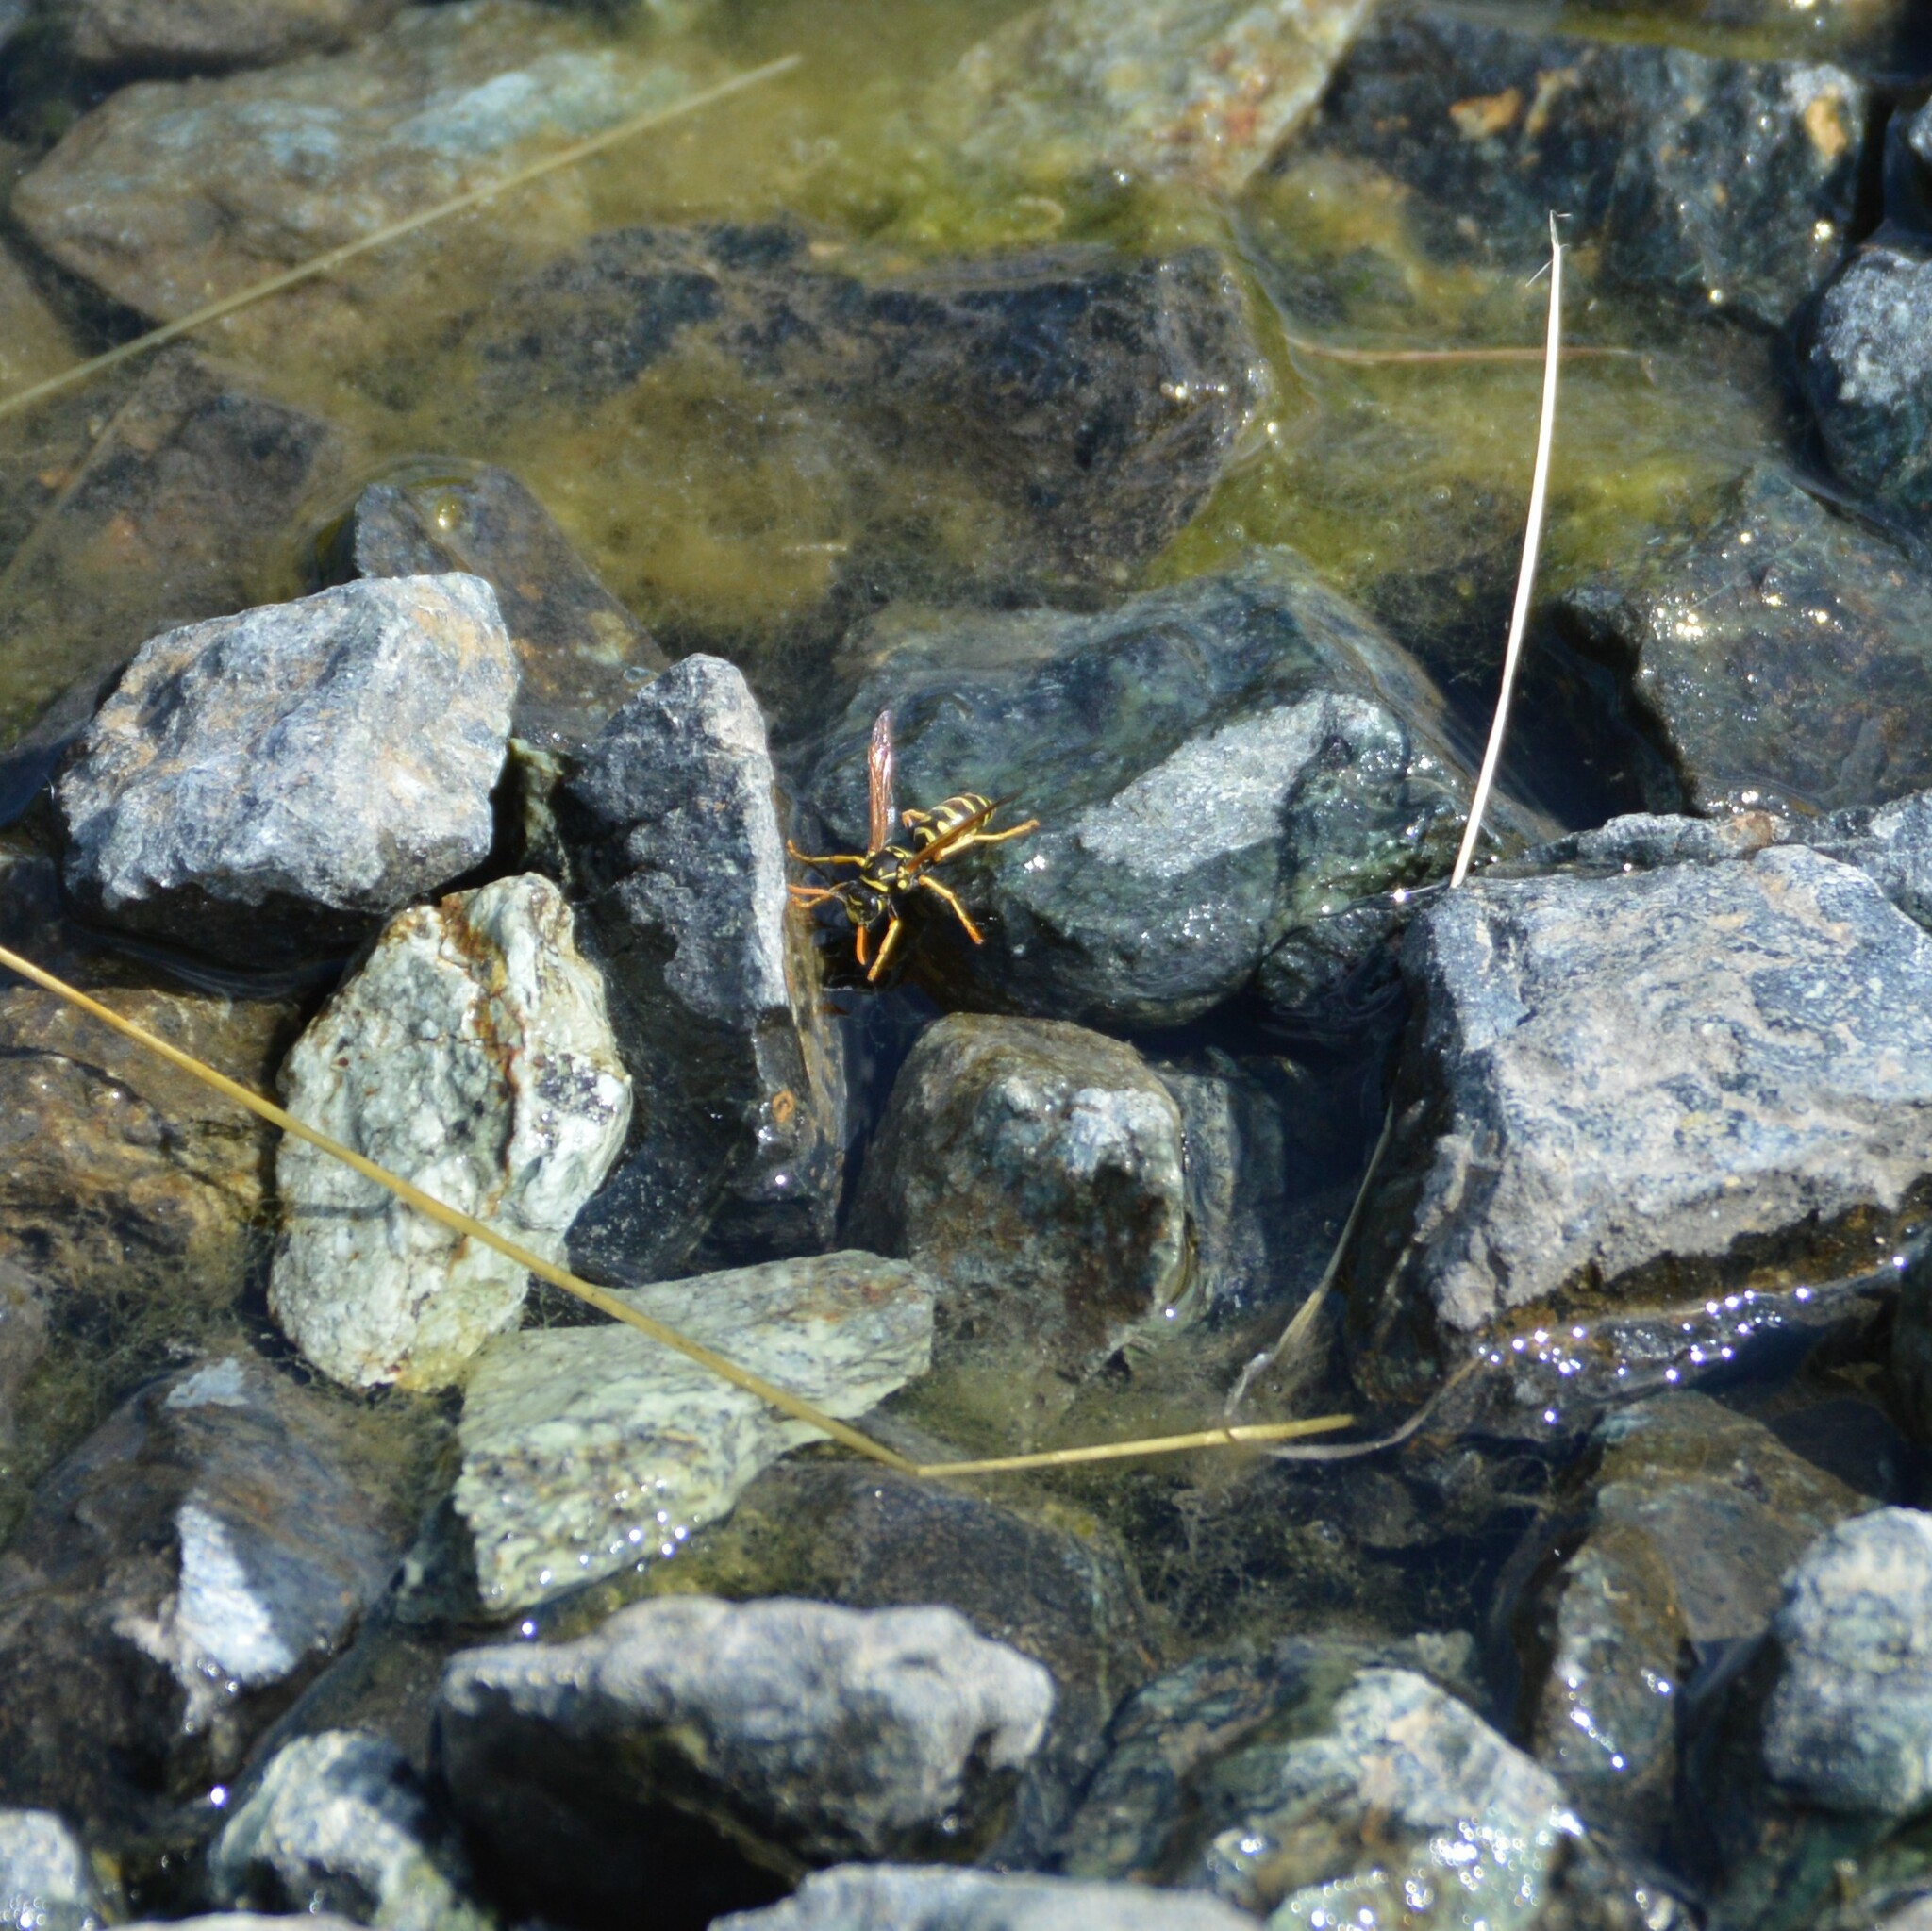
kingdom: Animalia
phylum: Arthropoda
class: Insecta
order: Hymenoptera
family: Eumenidae
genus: Polistes
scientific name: Polistes dominula
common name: Paper wasp
